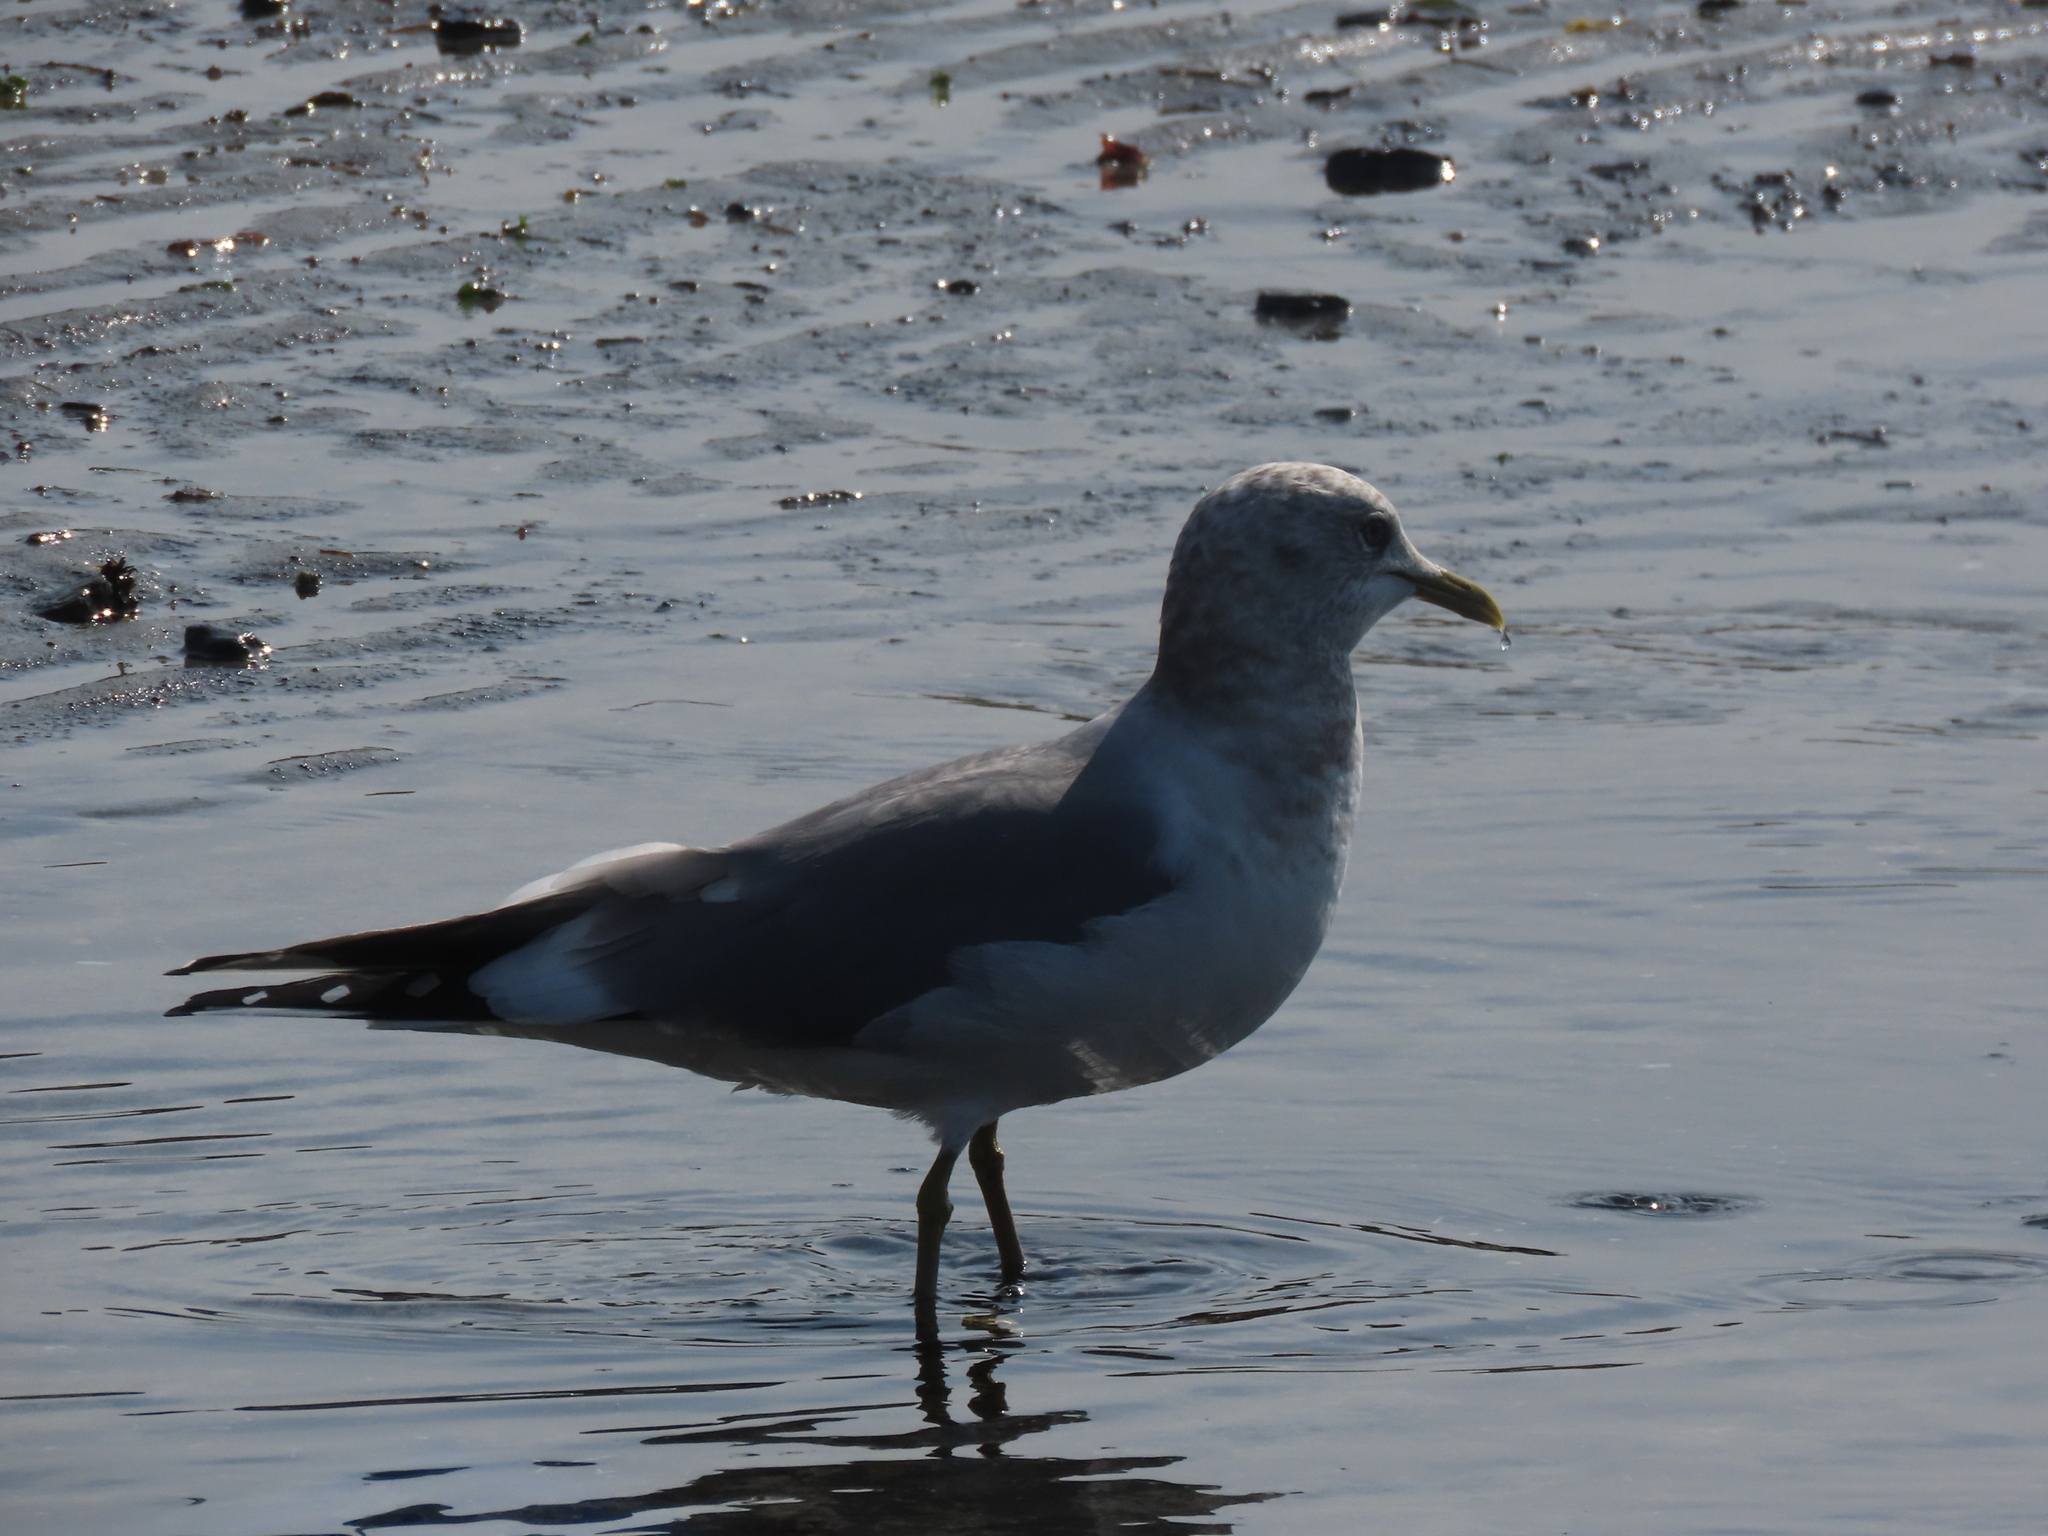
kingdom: Animalia
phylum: Chordata
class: Aves
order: Charadriiformes
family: Laridae
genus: Larus
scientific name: Larus brachyrhynchus
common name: Short-billed gull
